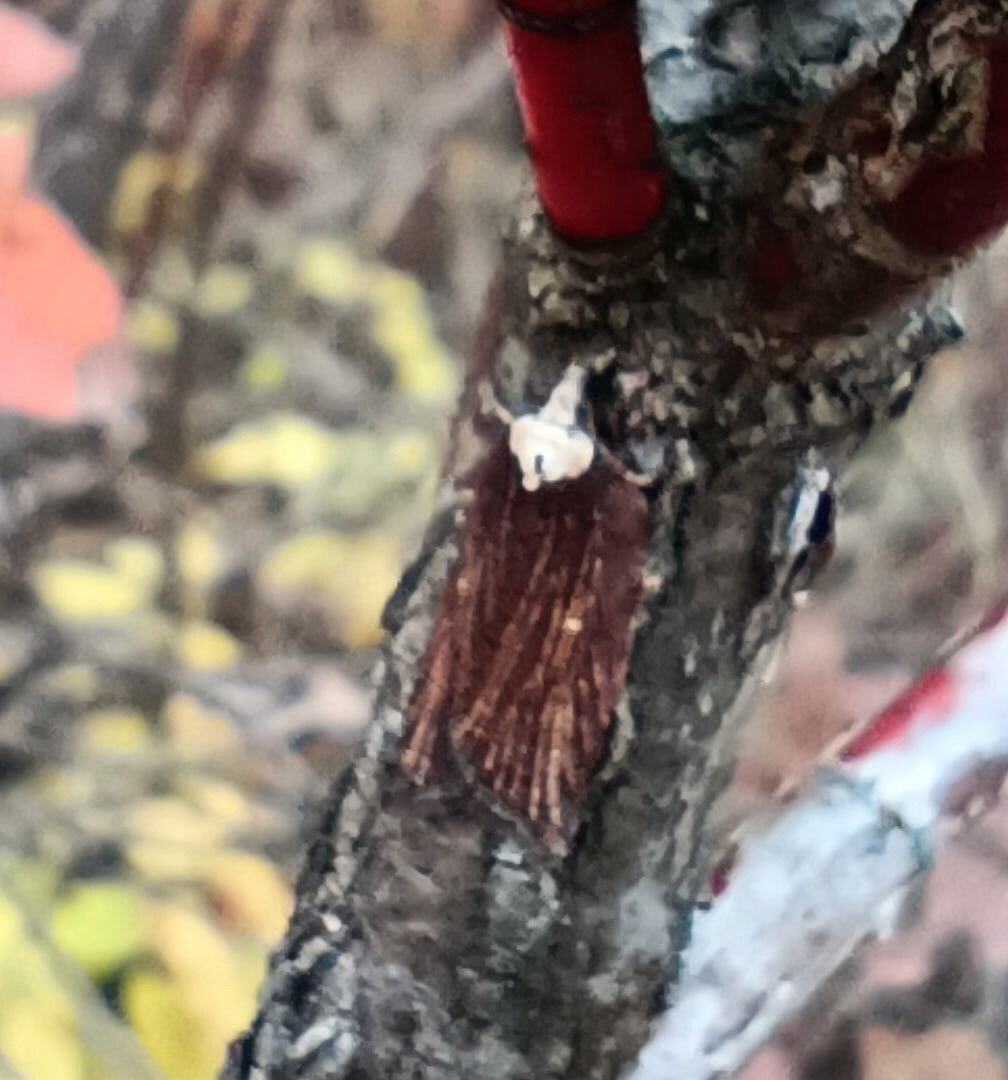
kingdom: Animalia
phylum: Arthropoda
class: Insecta
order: Lepidoptera
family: Tortricidae
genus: Acleris
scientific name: Acleris hastiana
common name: Sallow button
